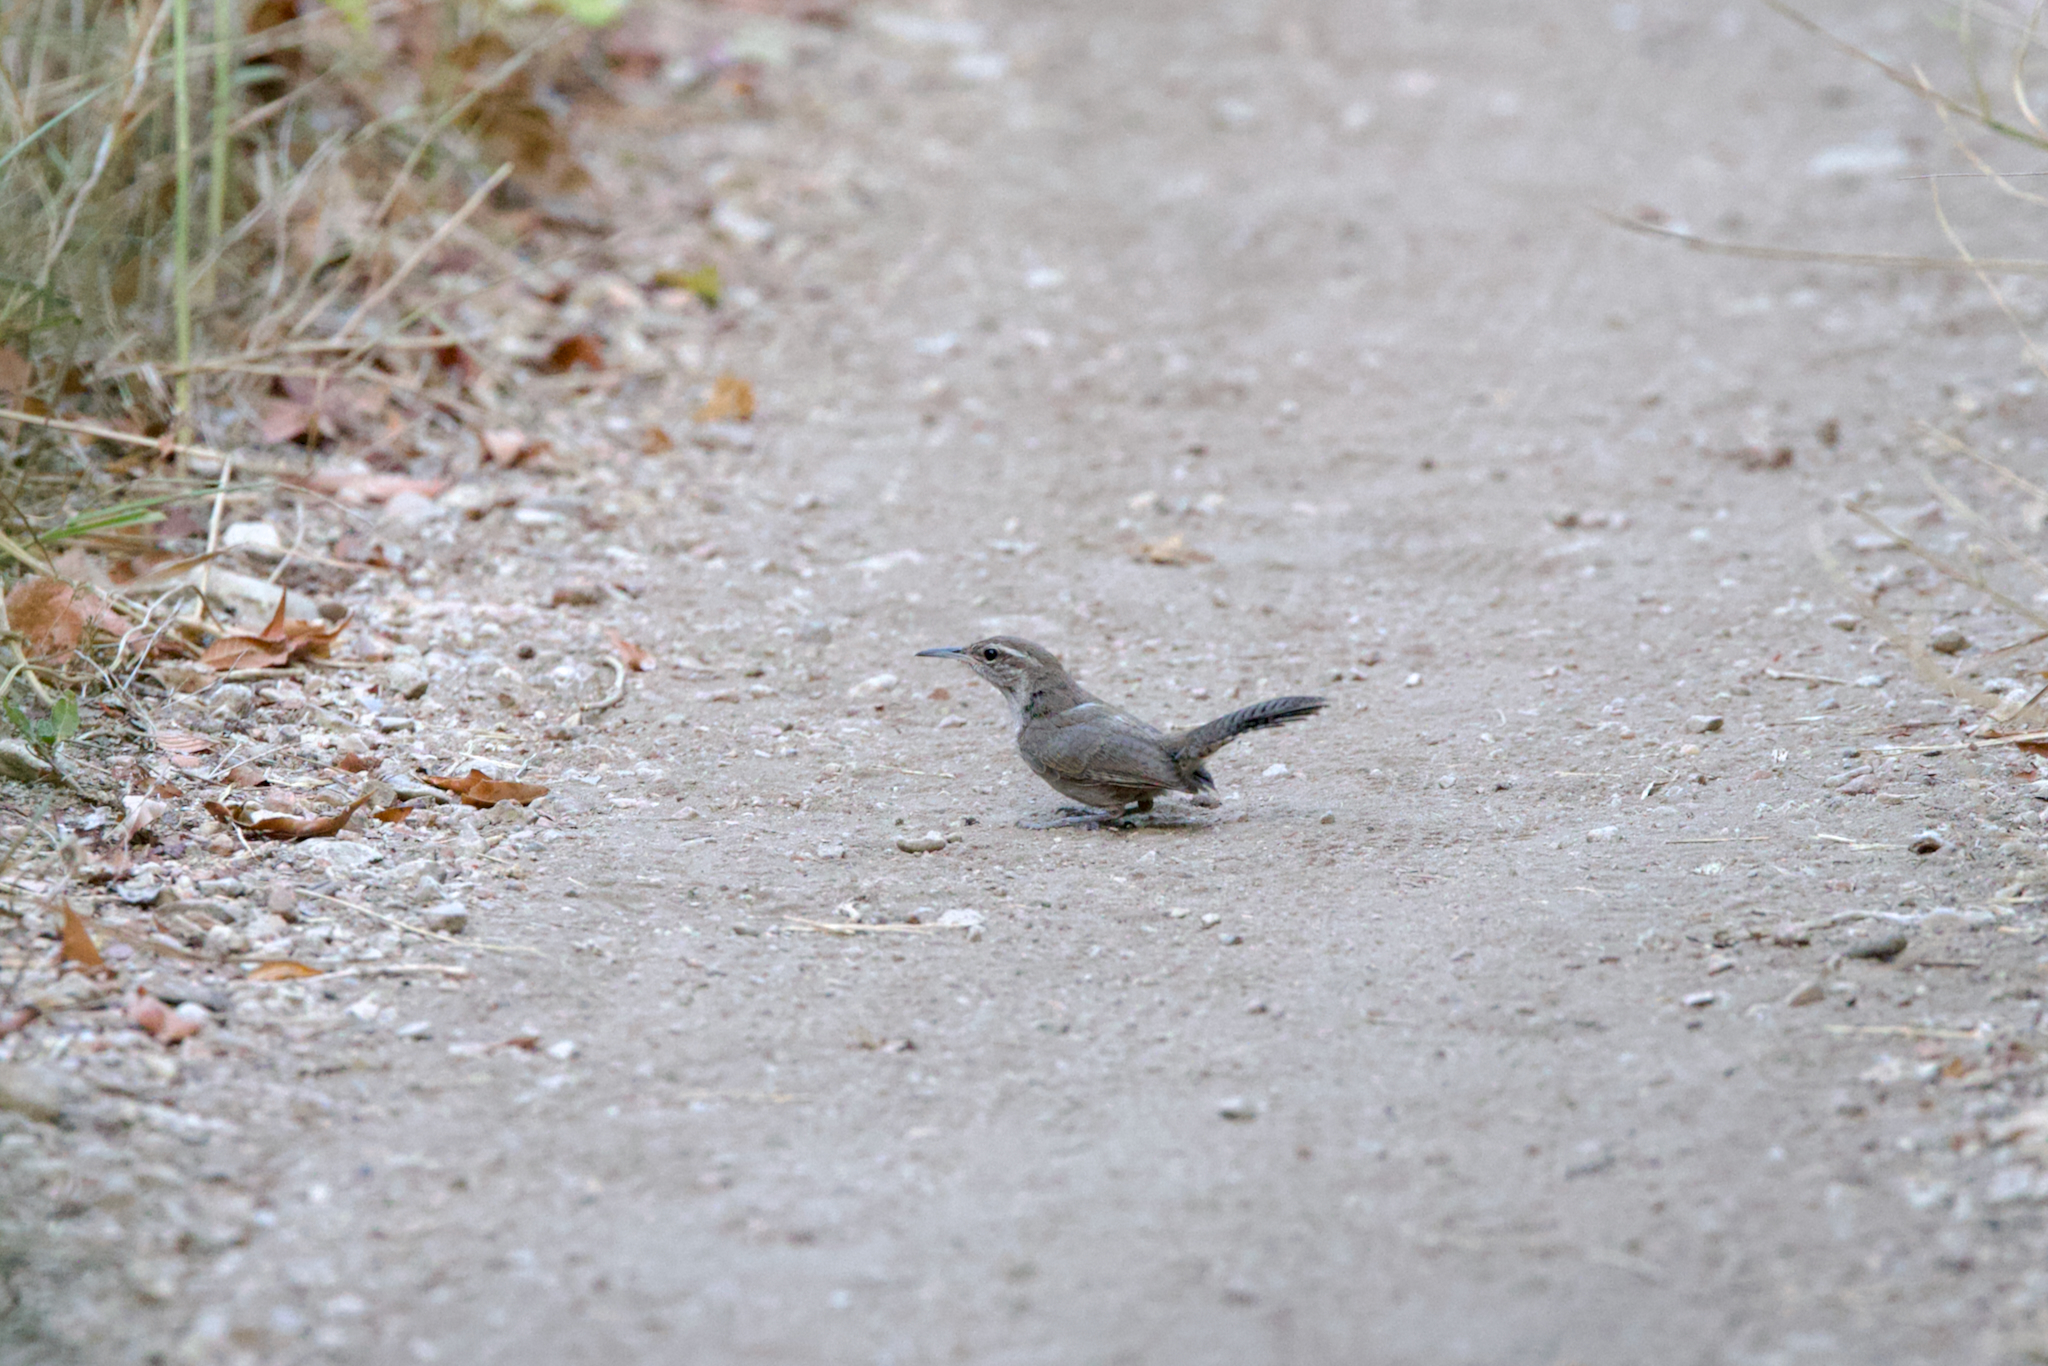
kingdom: Animalia
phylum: Chordata
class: Aves
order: Passeriformes
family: Troglodytidae
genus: Thryomanes
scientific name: Thryomanes bewickii
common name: Bewick's wren
